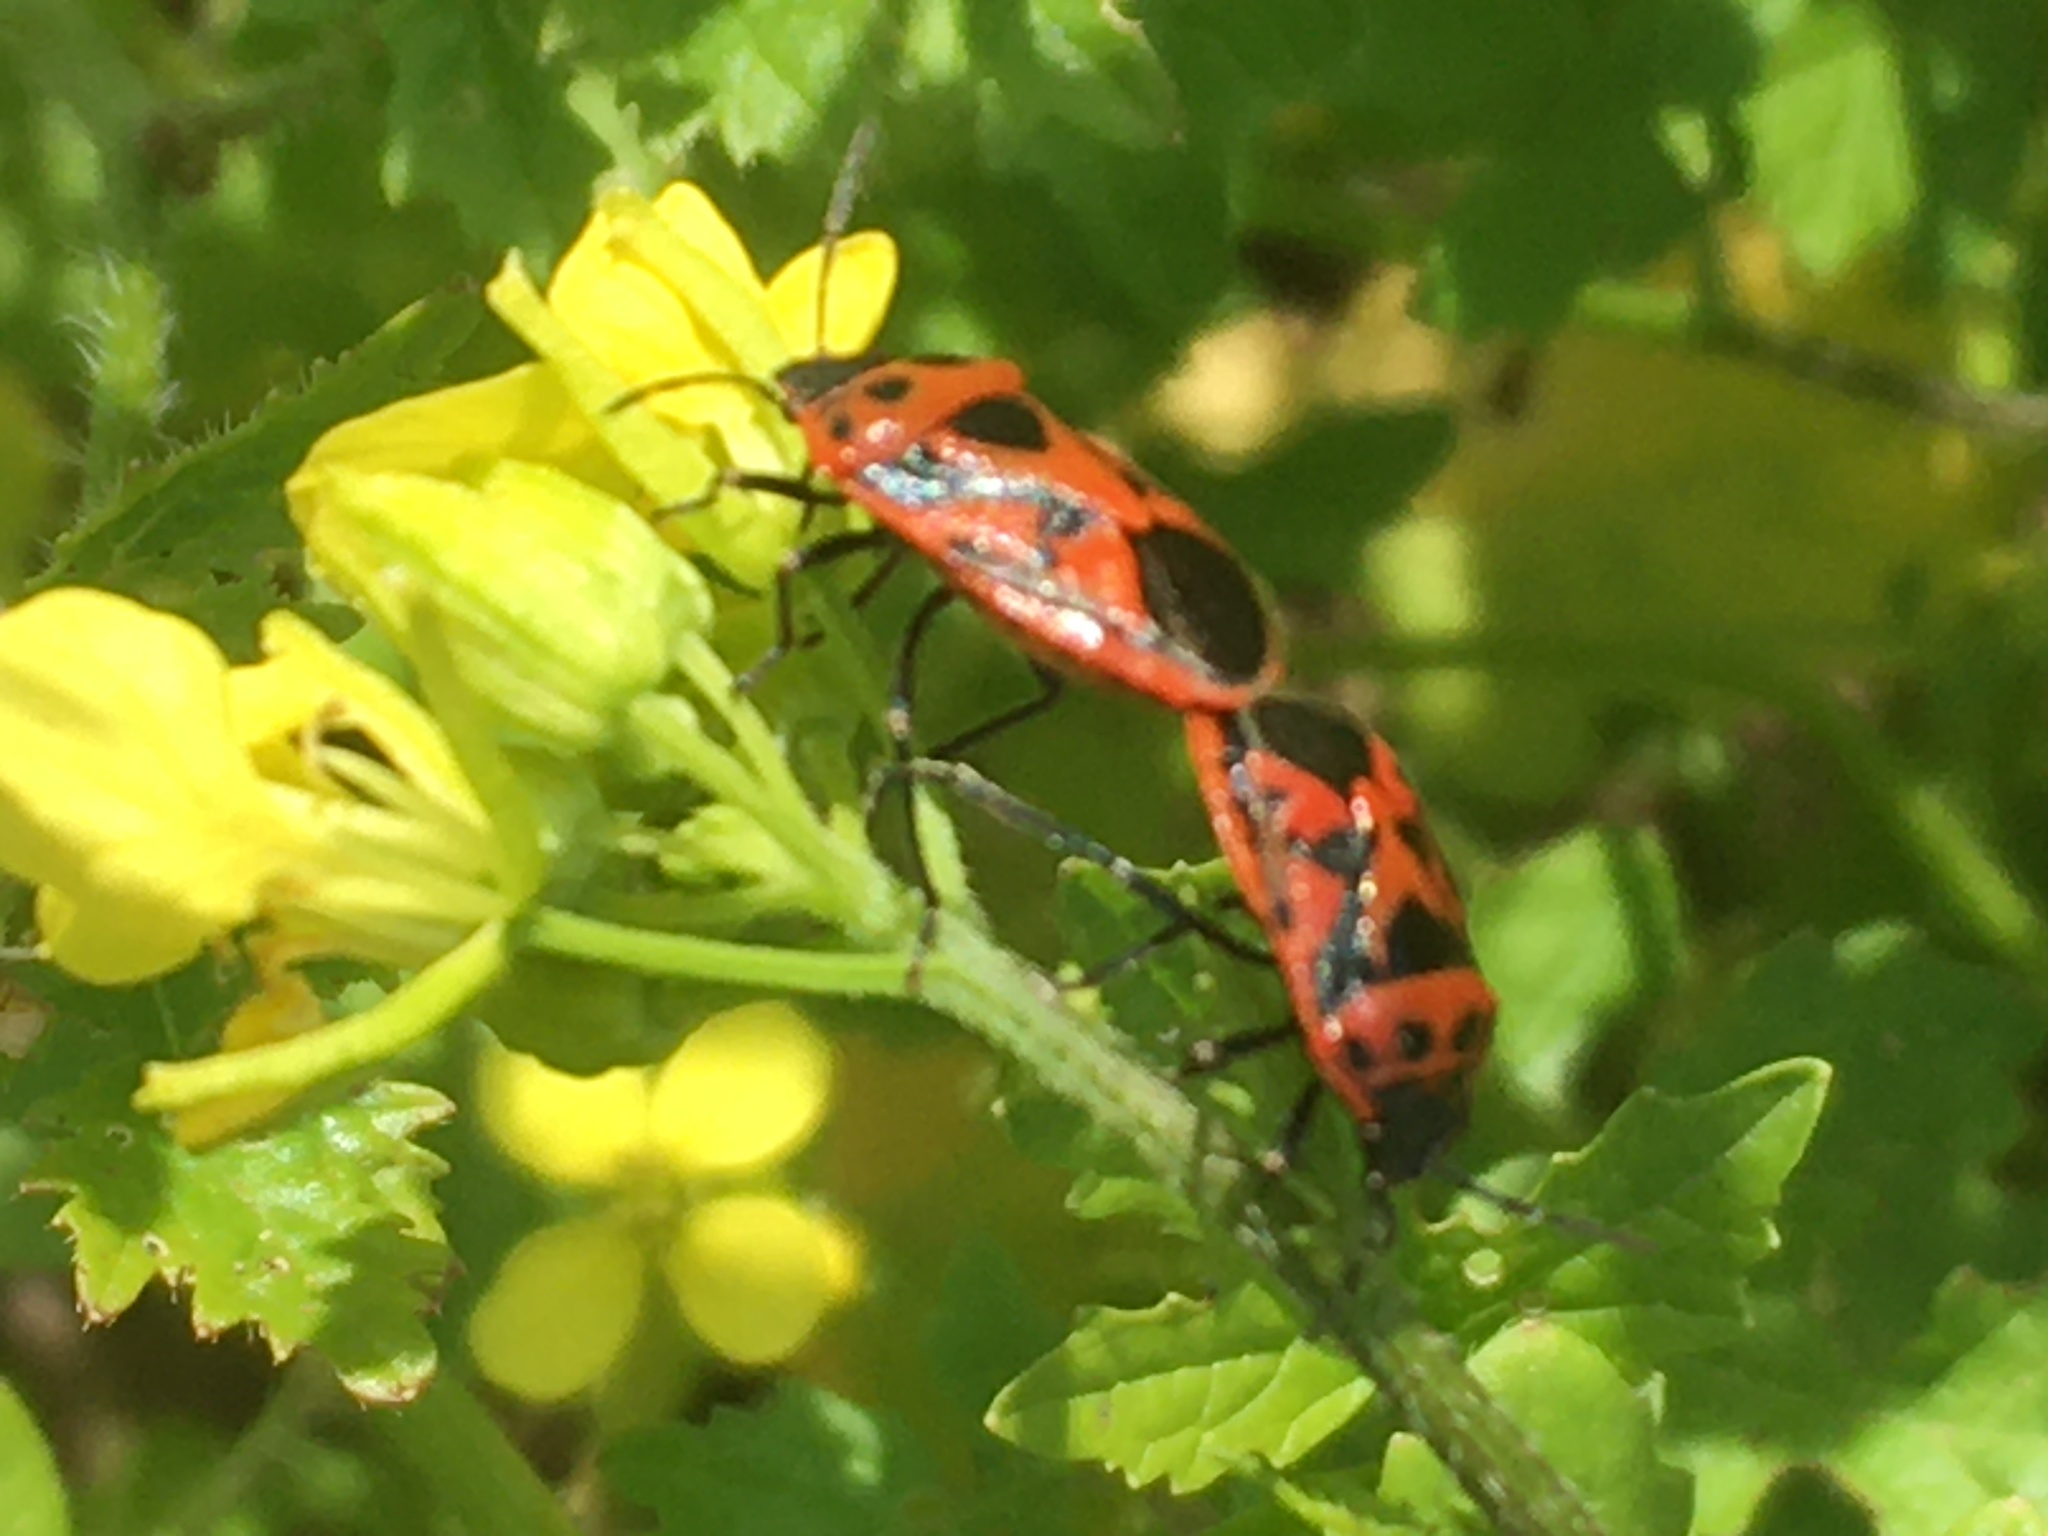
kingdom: Animalia
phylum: Arthropoda
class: Insecta
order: Hemiptera
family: Pentatomidae
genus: Eurydema
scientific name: Eurydema ornata
